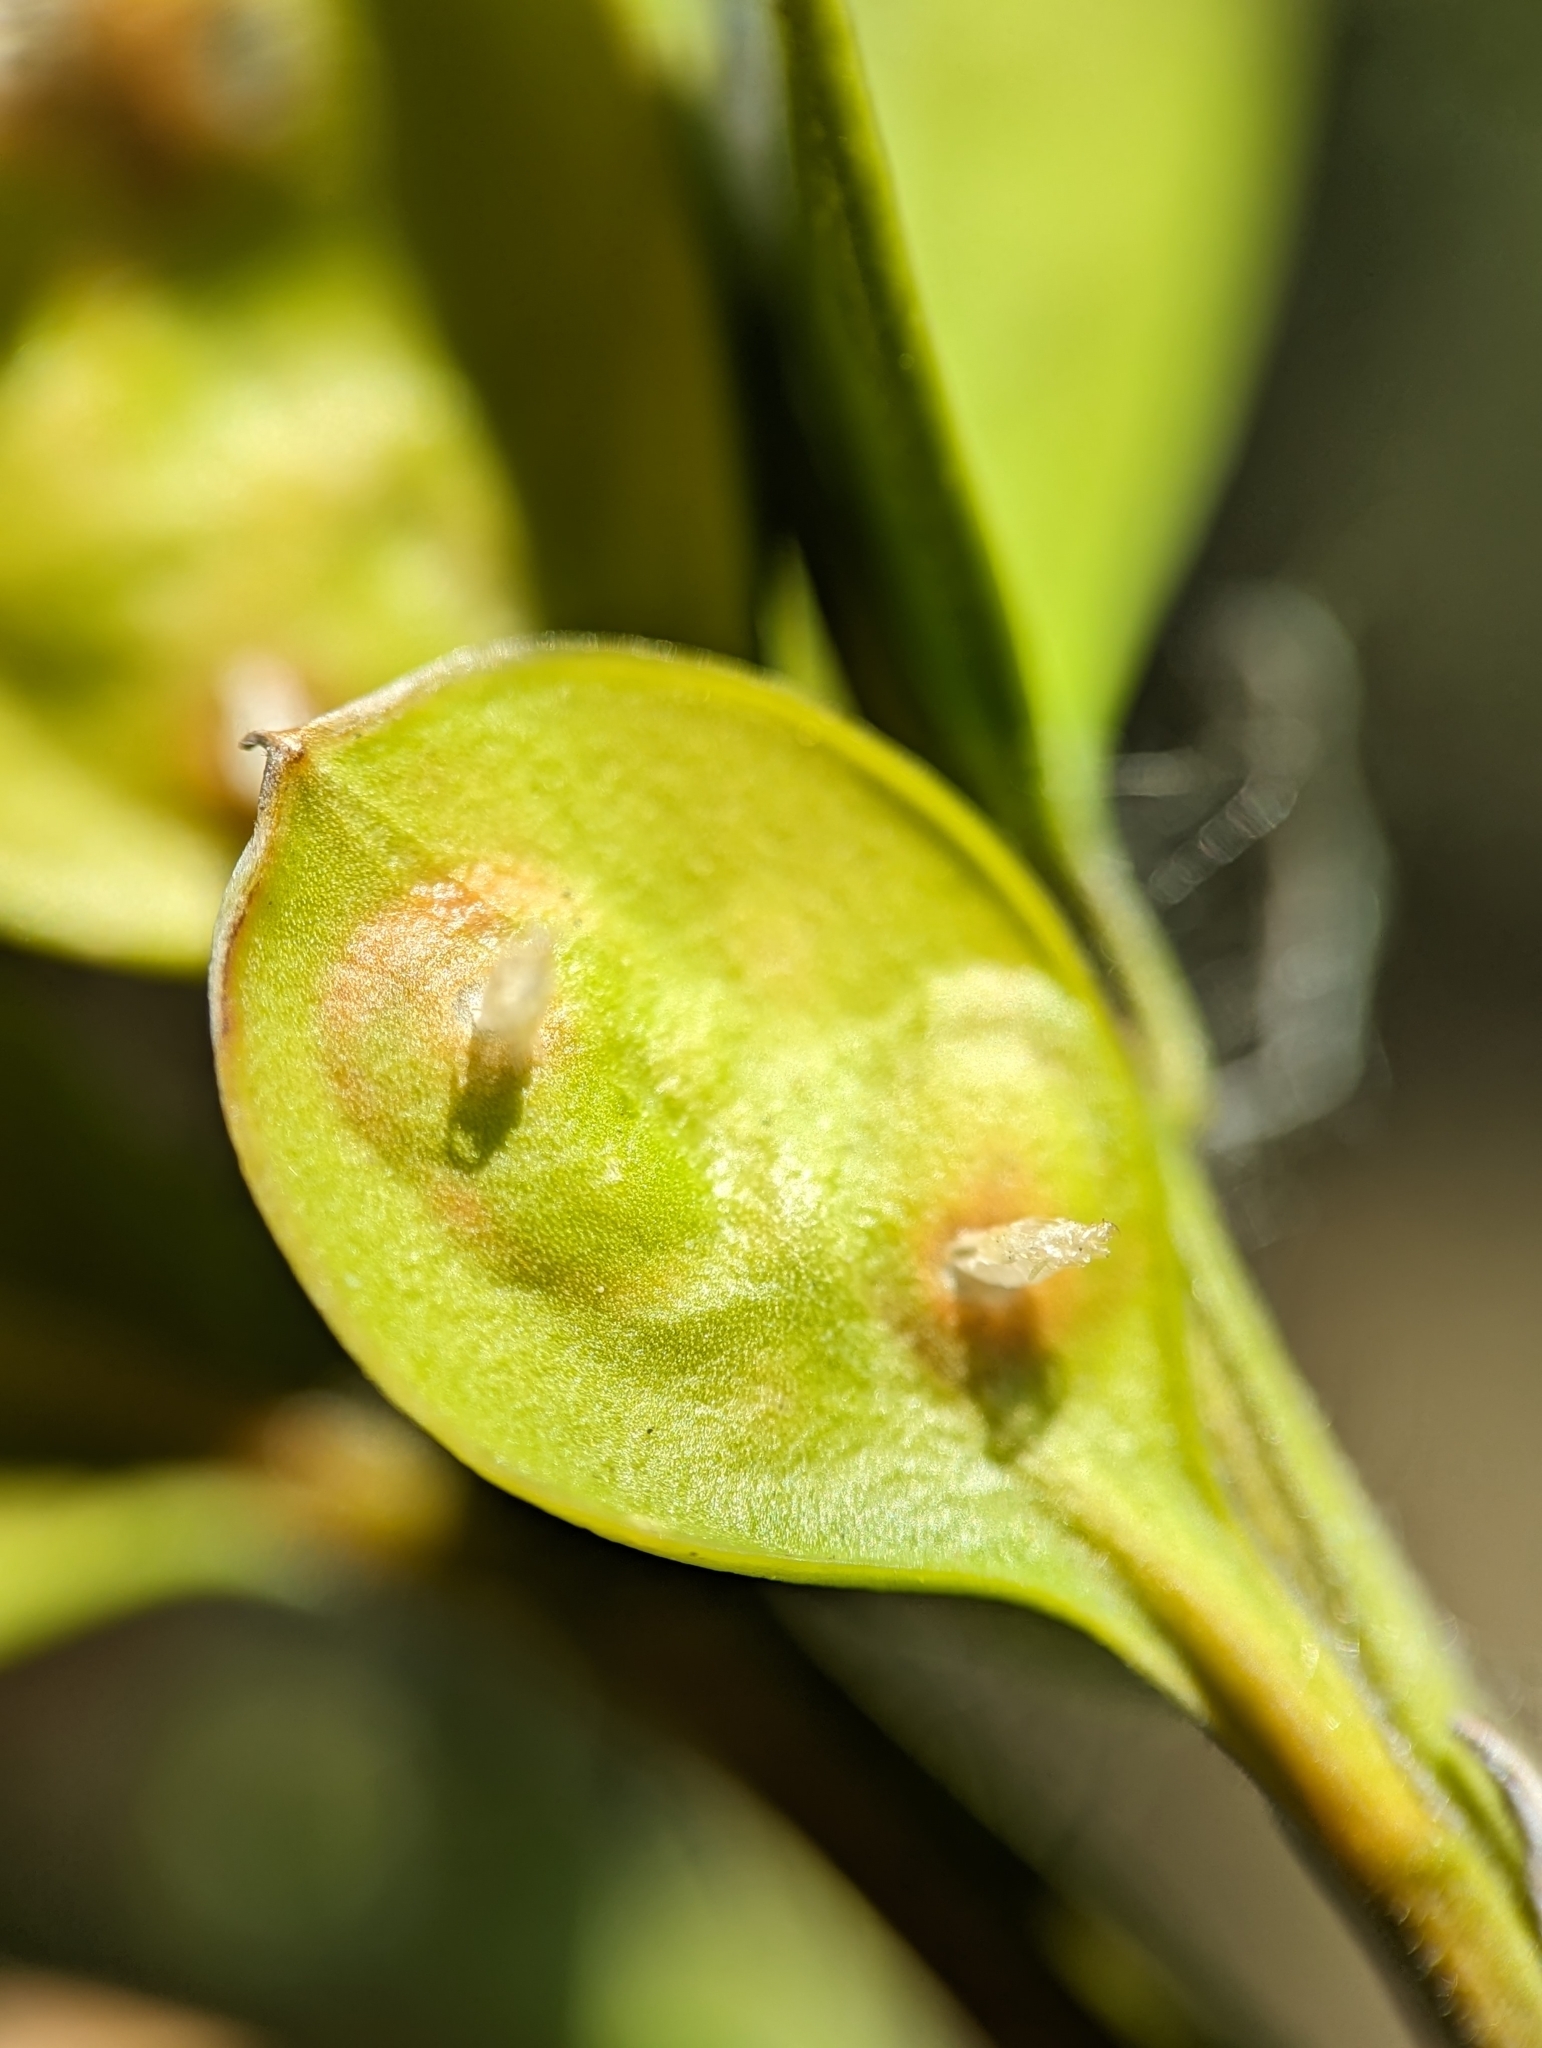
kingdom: Animalia
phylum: Arthropoda
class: Insecta
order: Diptera
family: Cecidomyiidae
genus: Monarthropalpus
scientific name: Monarthropalpus flavus
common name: Boxwood leafminer
